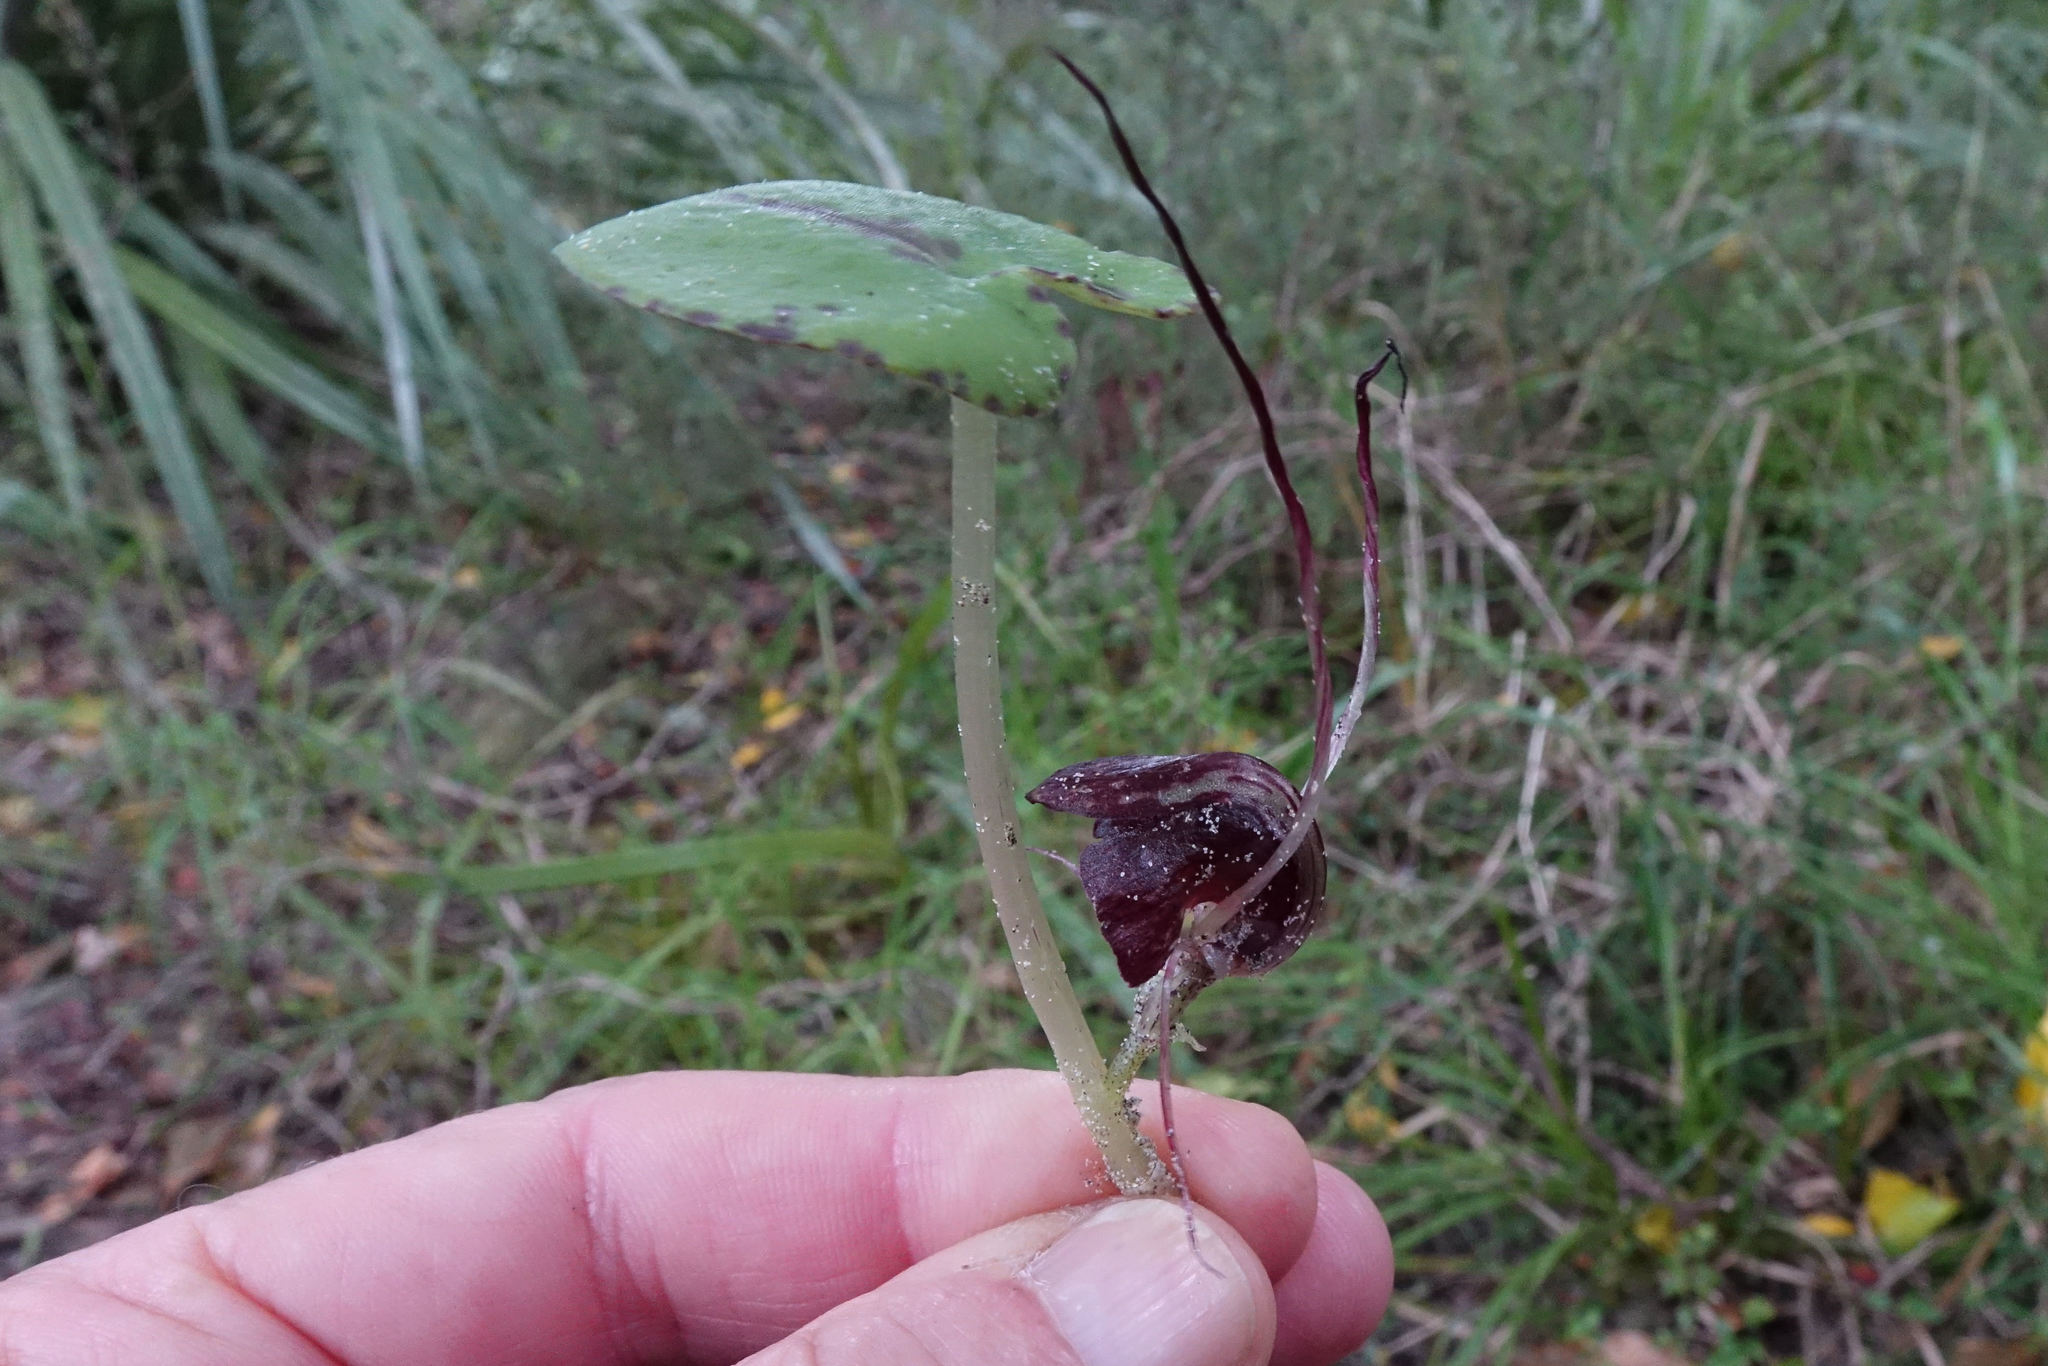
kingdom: Plantae
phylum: Tracheophyta
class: Liliopsida
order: Asparagales
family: Orchidaceae
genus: Corybas
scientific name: Corybas macranthus
